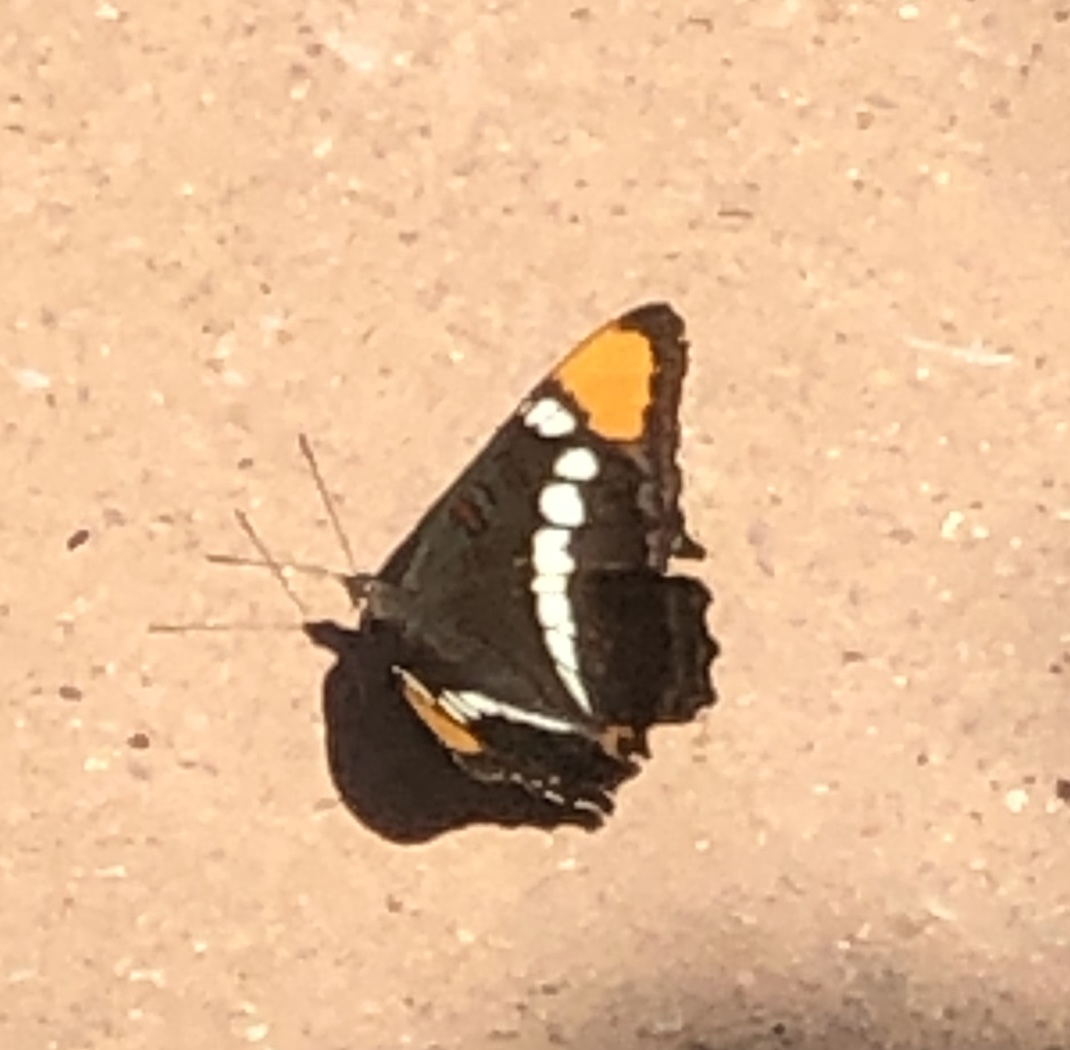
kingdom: Animalia
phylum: Arthropoda
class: Insecta
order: Lepidoptera
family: Nymphalidae
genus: Limenitis
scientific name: Limenitis bredowii
